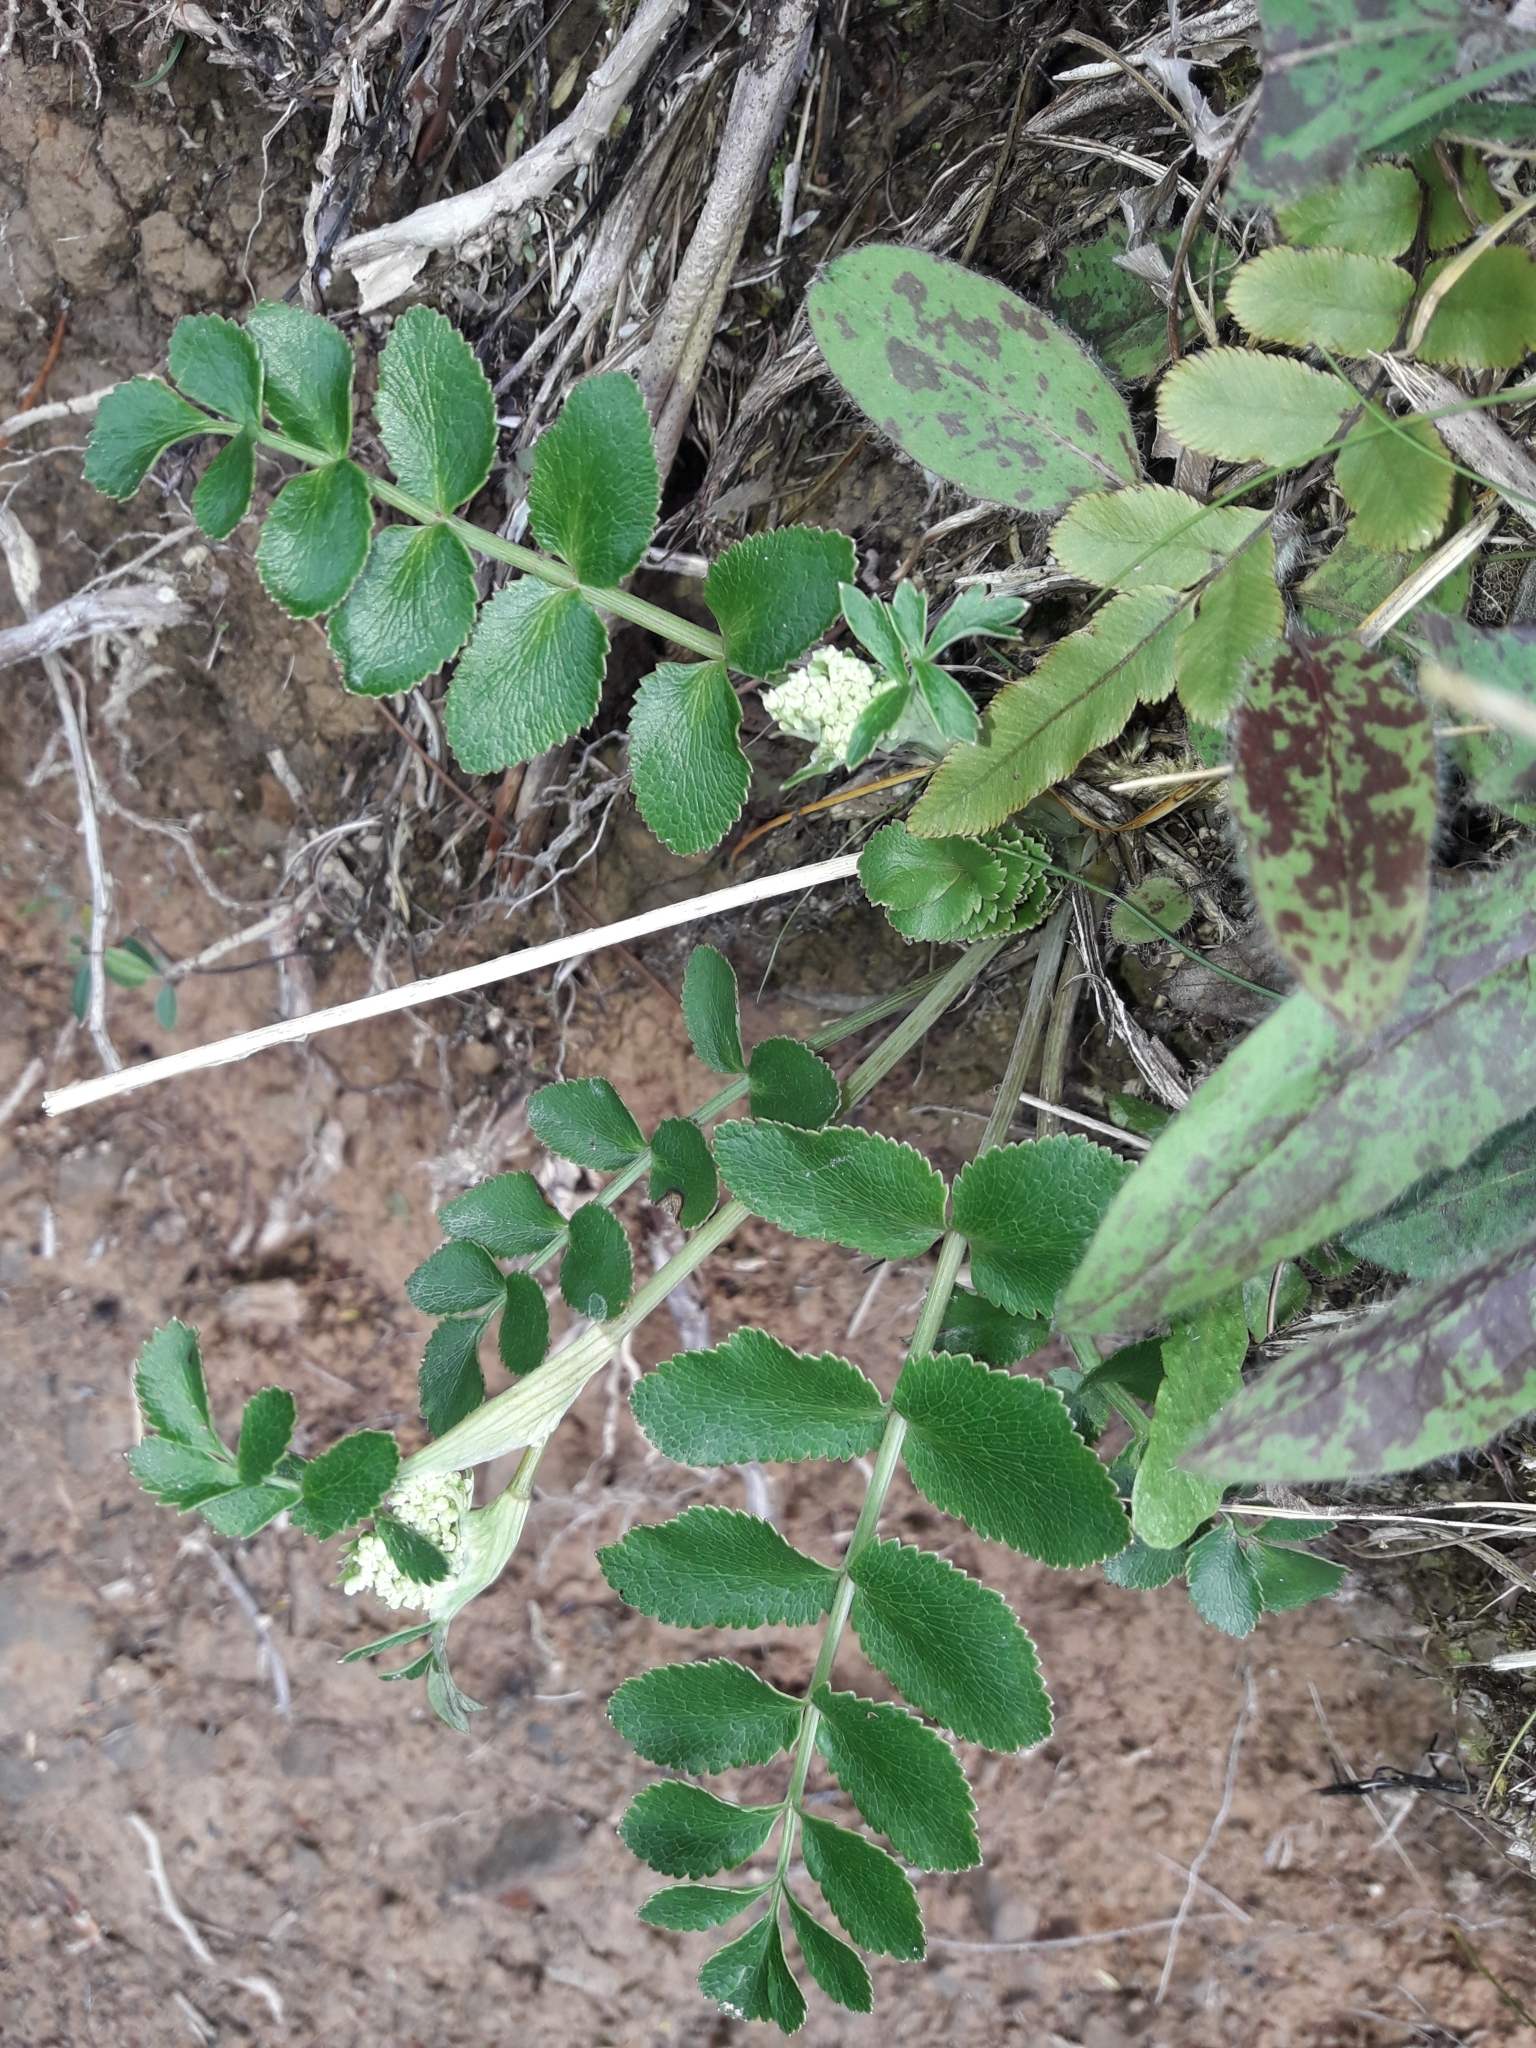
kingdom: Plantae
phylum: Tracheophyta
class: Magnoliopsida
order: Apiales
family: Apiaceae
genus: Gingidia
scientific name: Gingidia montana
